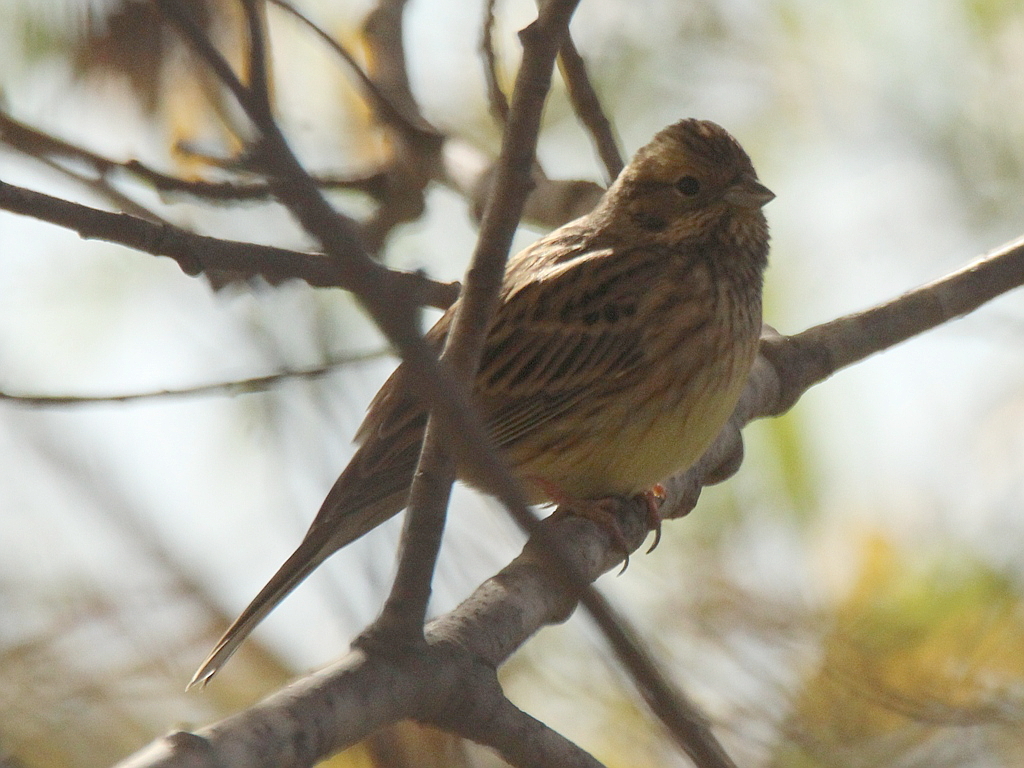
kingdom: Animalia
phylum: Chordata
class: Aves
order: Passeriformes
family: Emberizidae
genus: Emberiza
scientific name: Emberiza citrinella
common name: Yellowhammer
